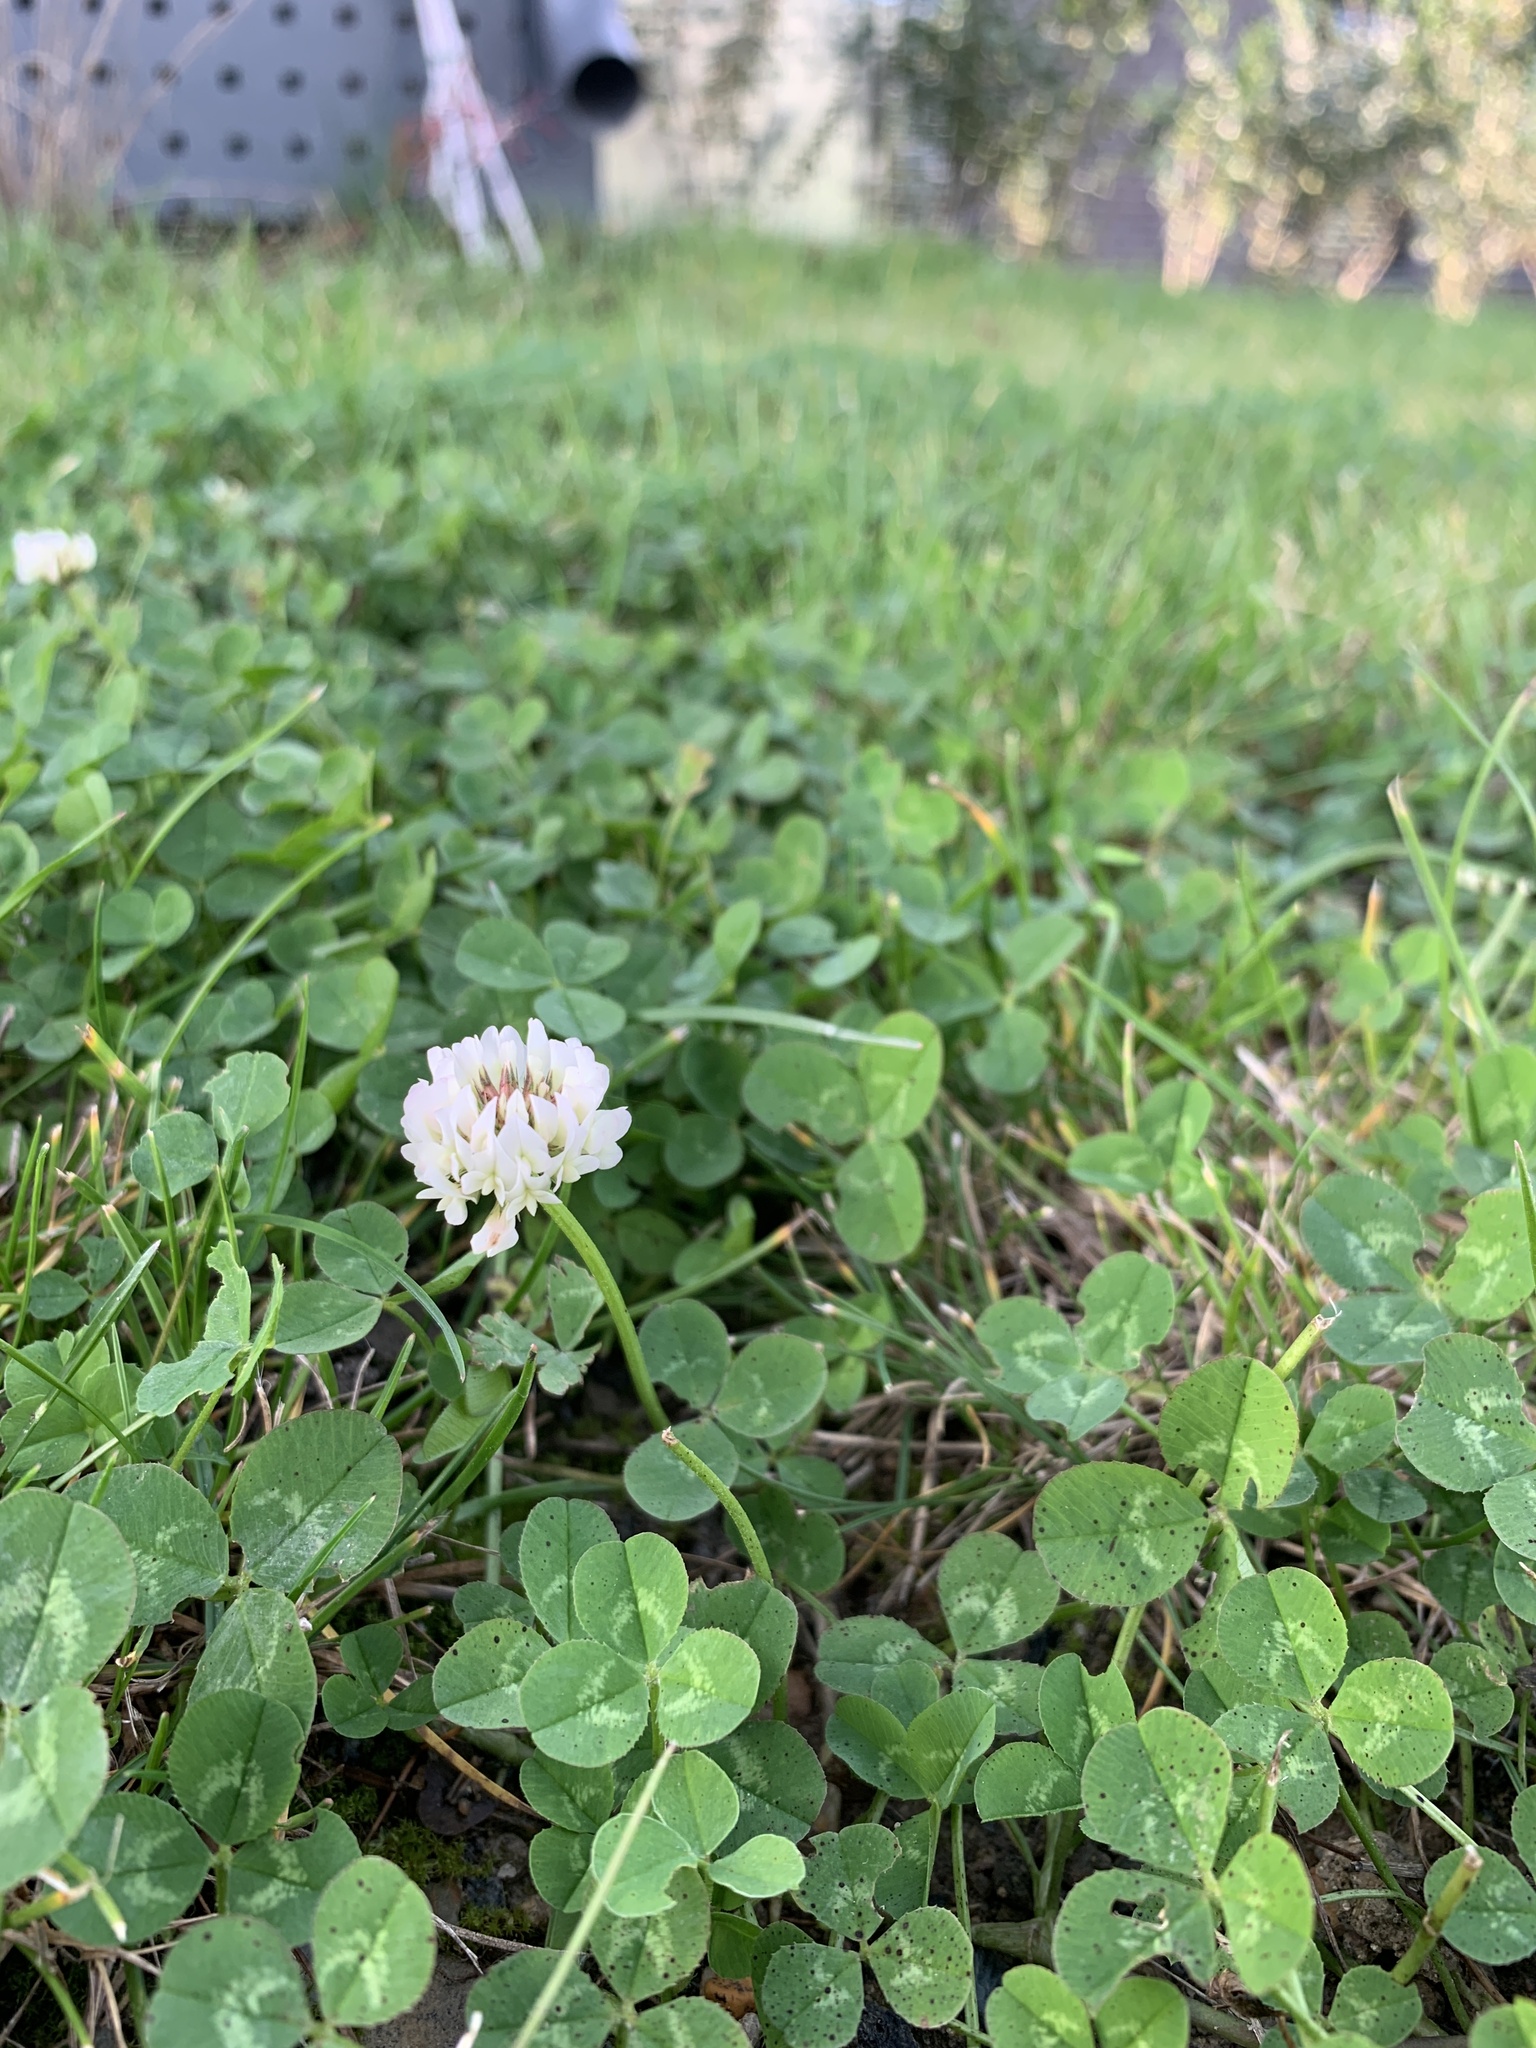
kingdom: Plantae
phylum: Tracheophyta
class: Magnoliopsida
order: Fabales
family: Fabaceae
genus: Trifolium
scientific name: Trifolium repens
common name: White clover
